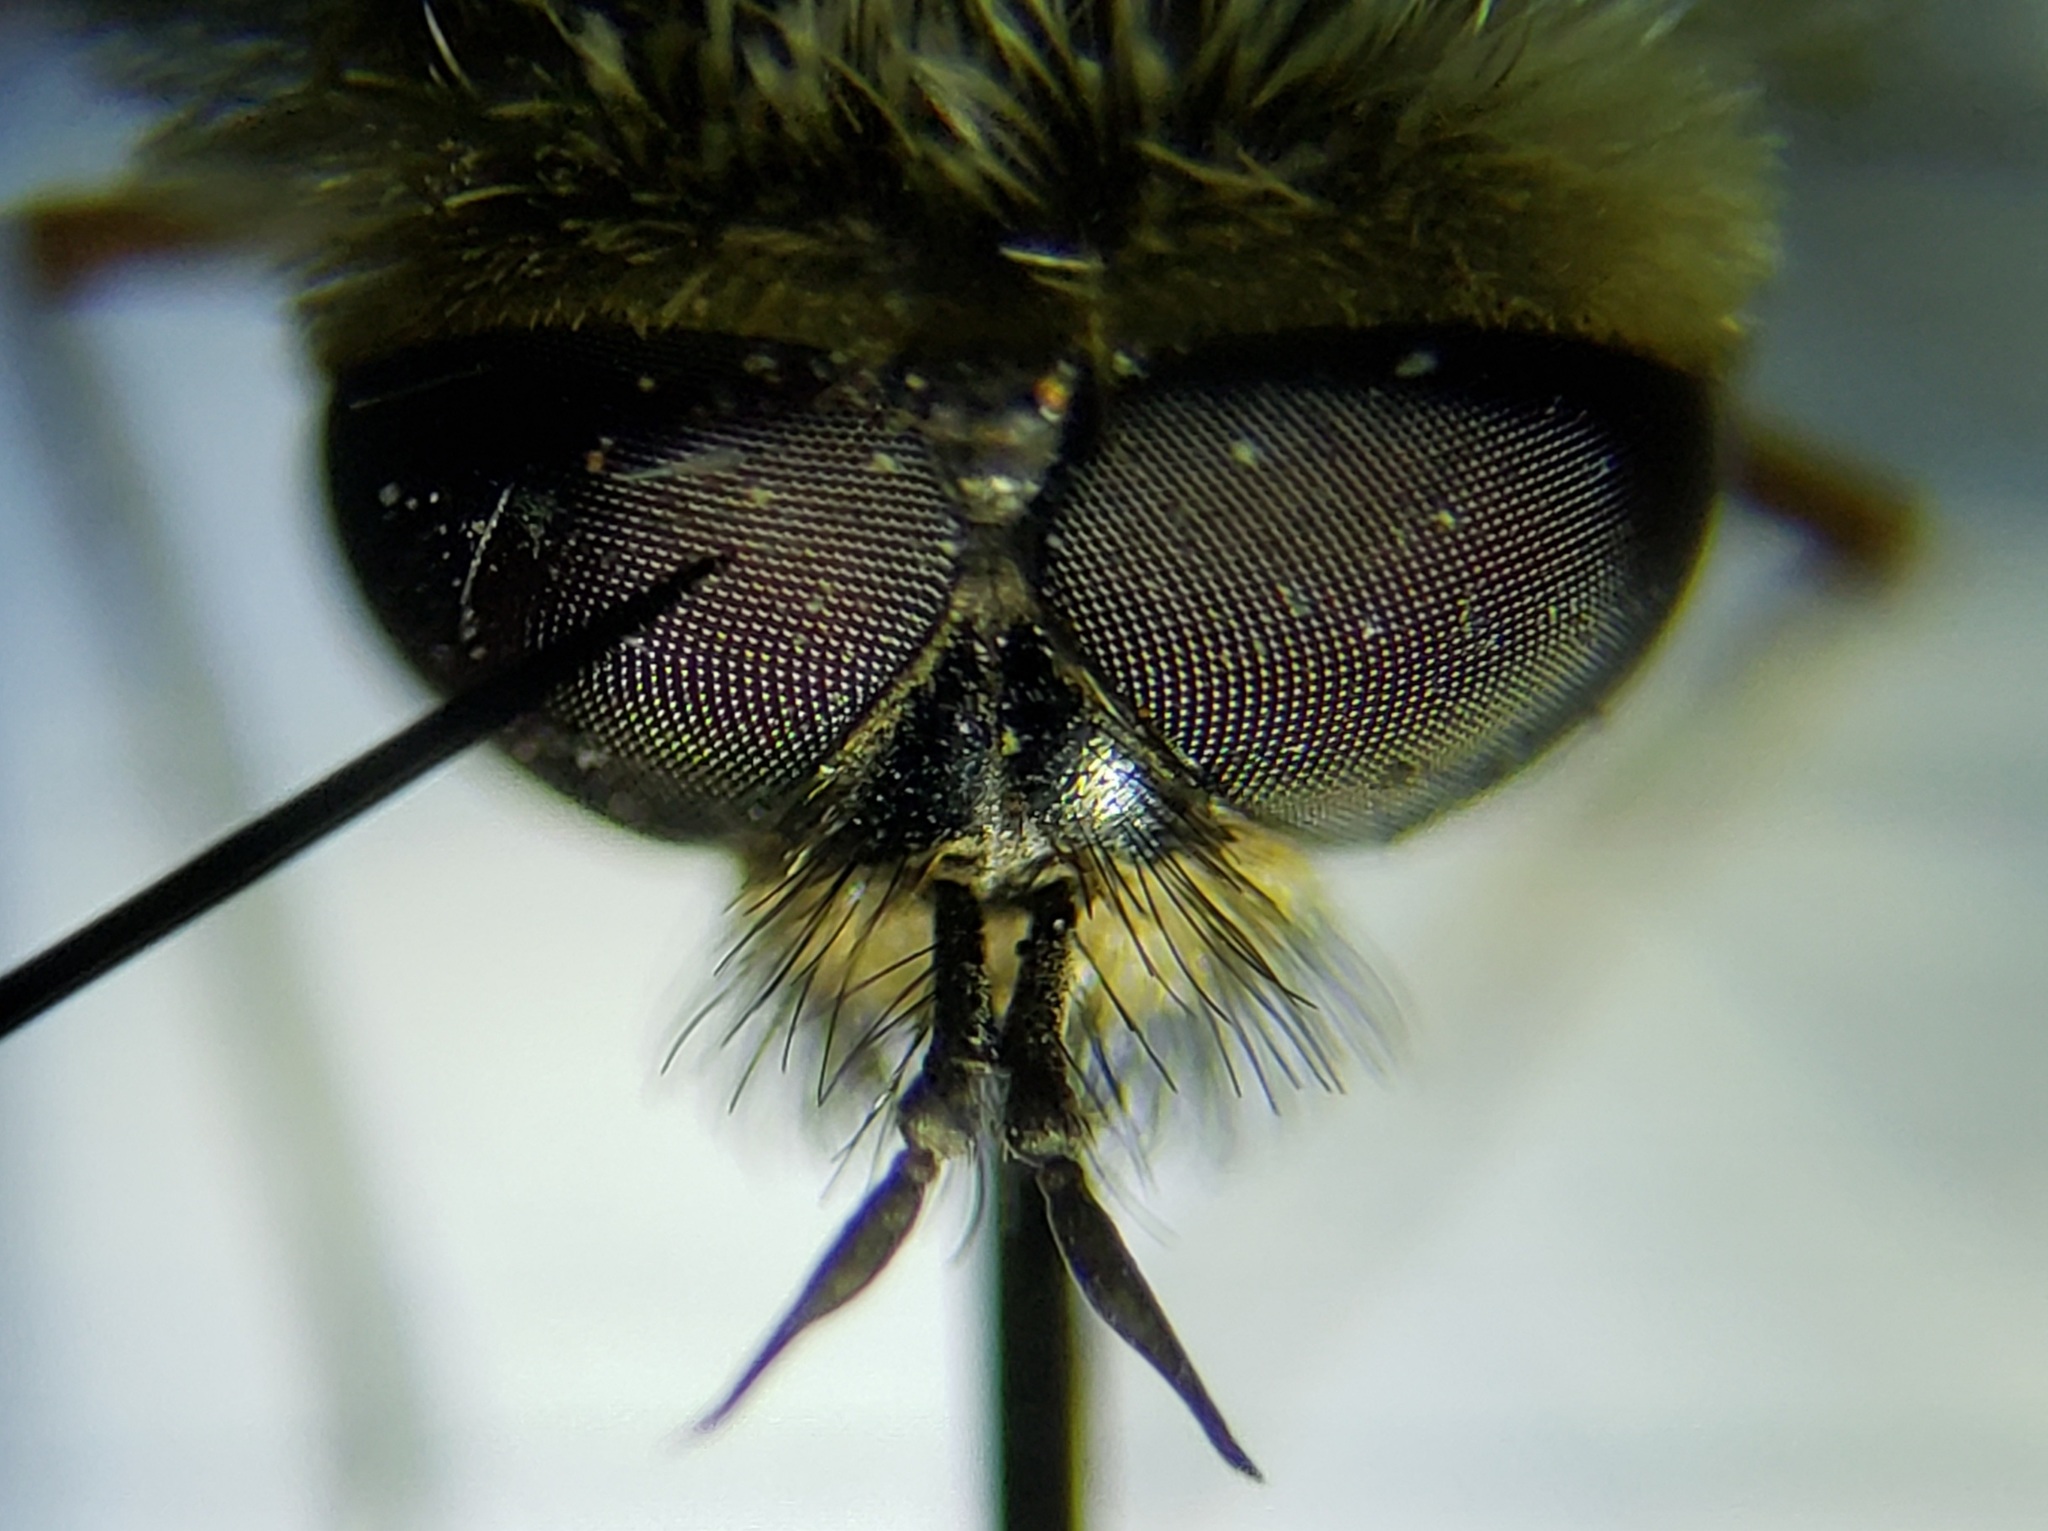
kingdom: Animalia
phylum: Arthropoda
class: Insecta
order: Diptera
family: Bombyliidae
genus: Systoechus
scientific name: Systoechus solitus
